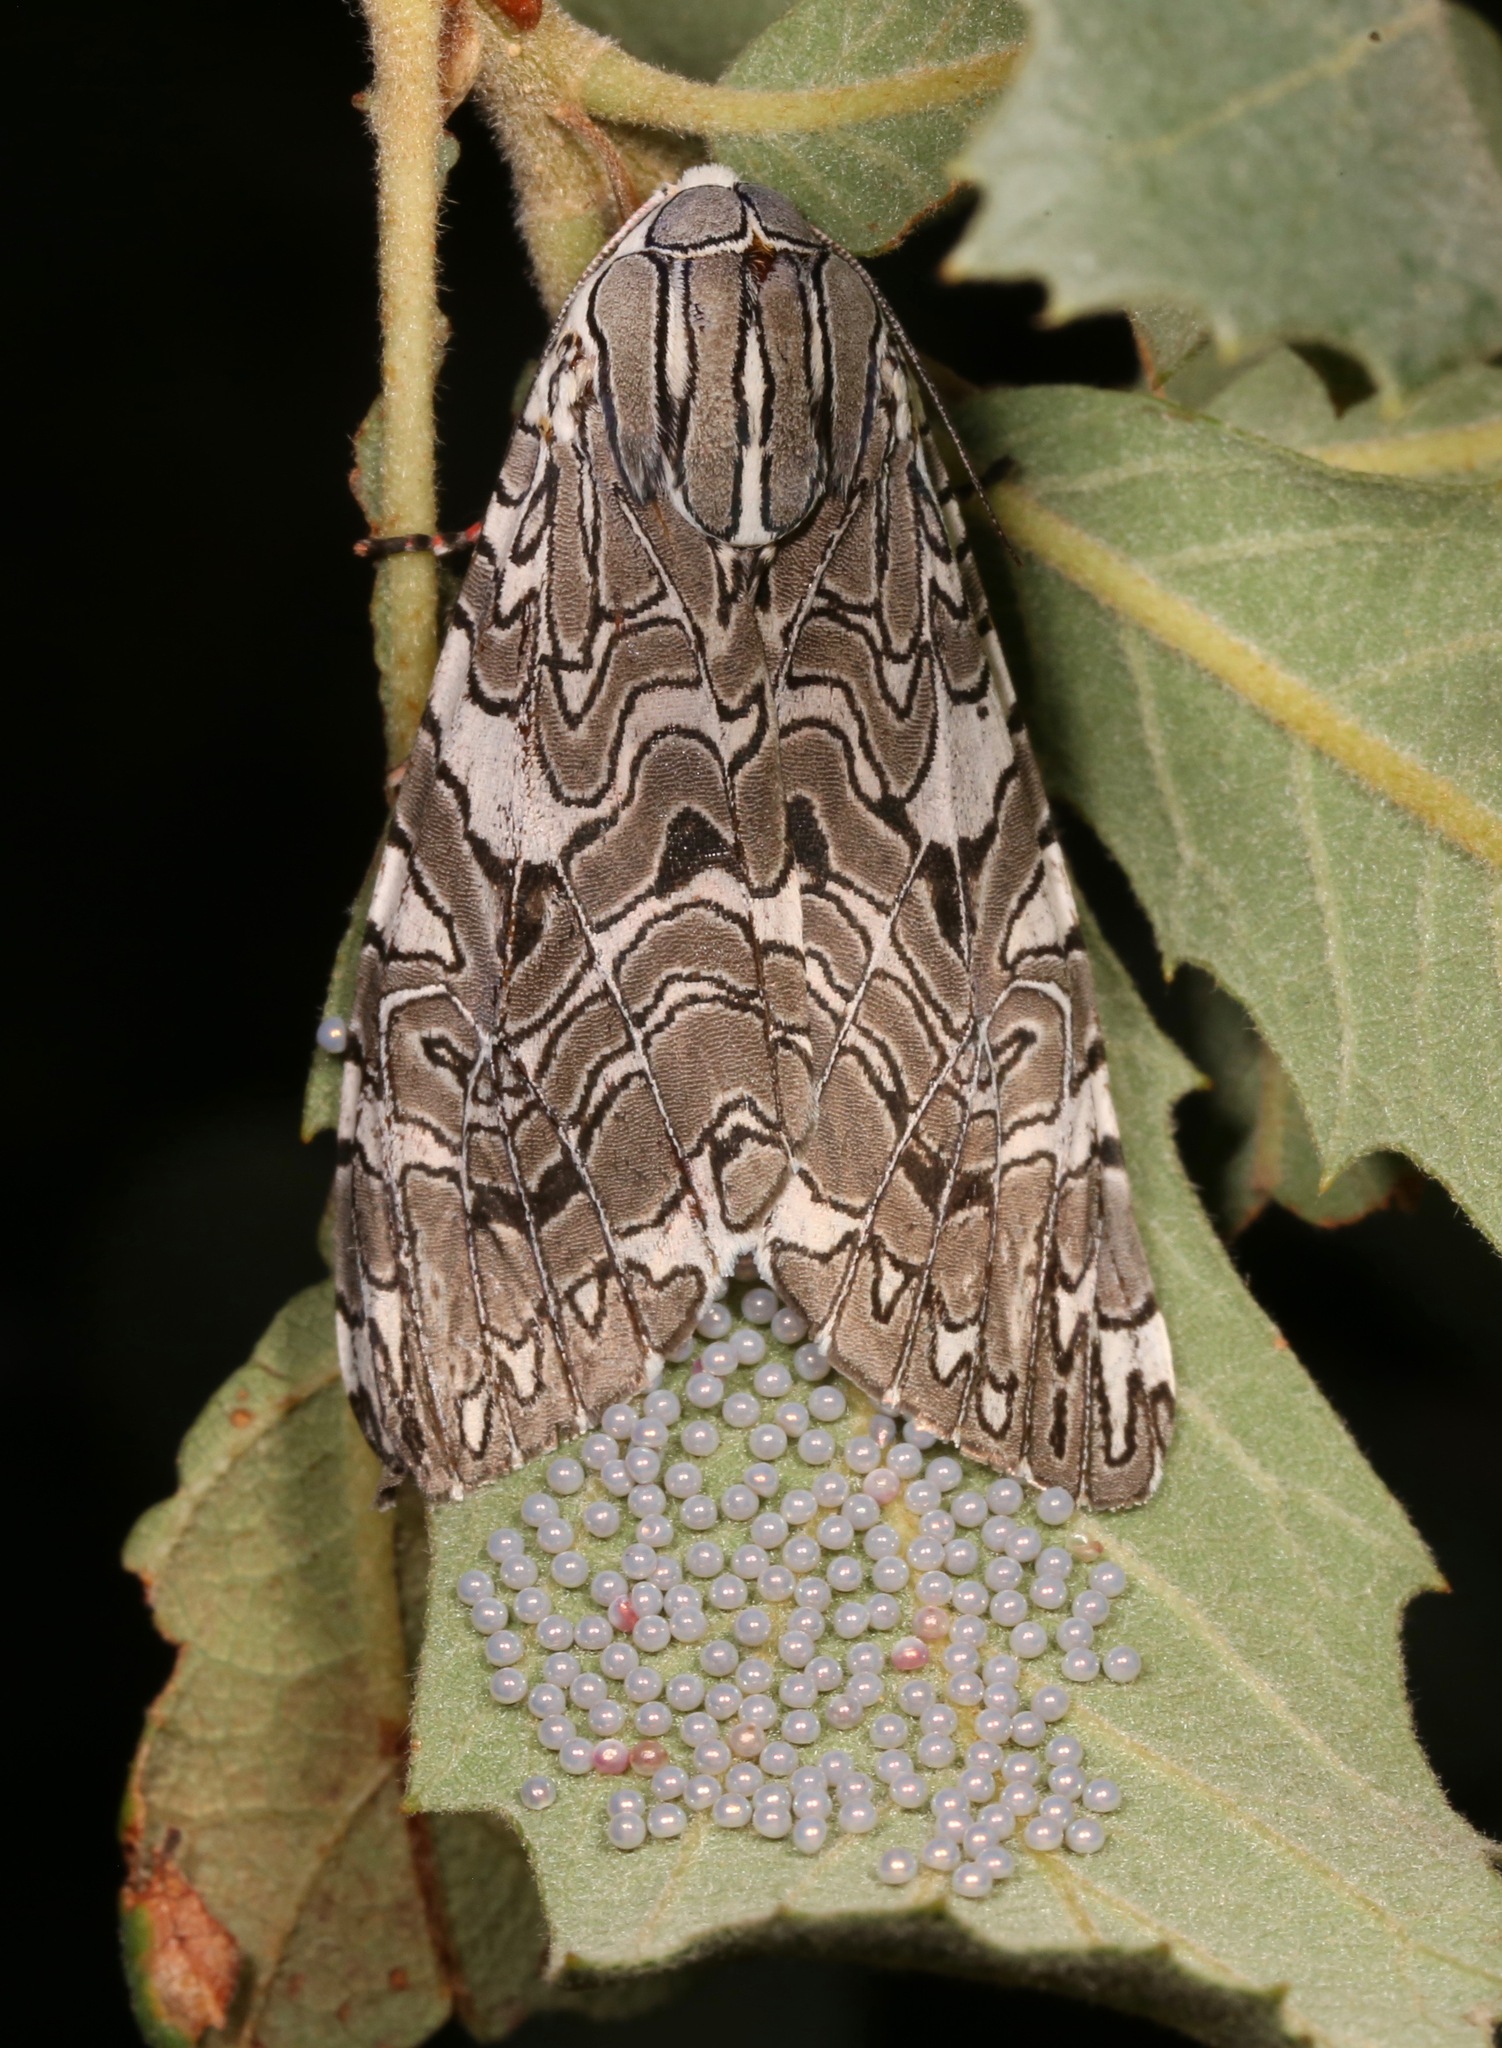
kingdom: Animalia
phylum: Arthropoda
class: Insecta
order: Lepidoptera
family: Erebidae
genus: Arachnis
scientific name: Arachnis picta
